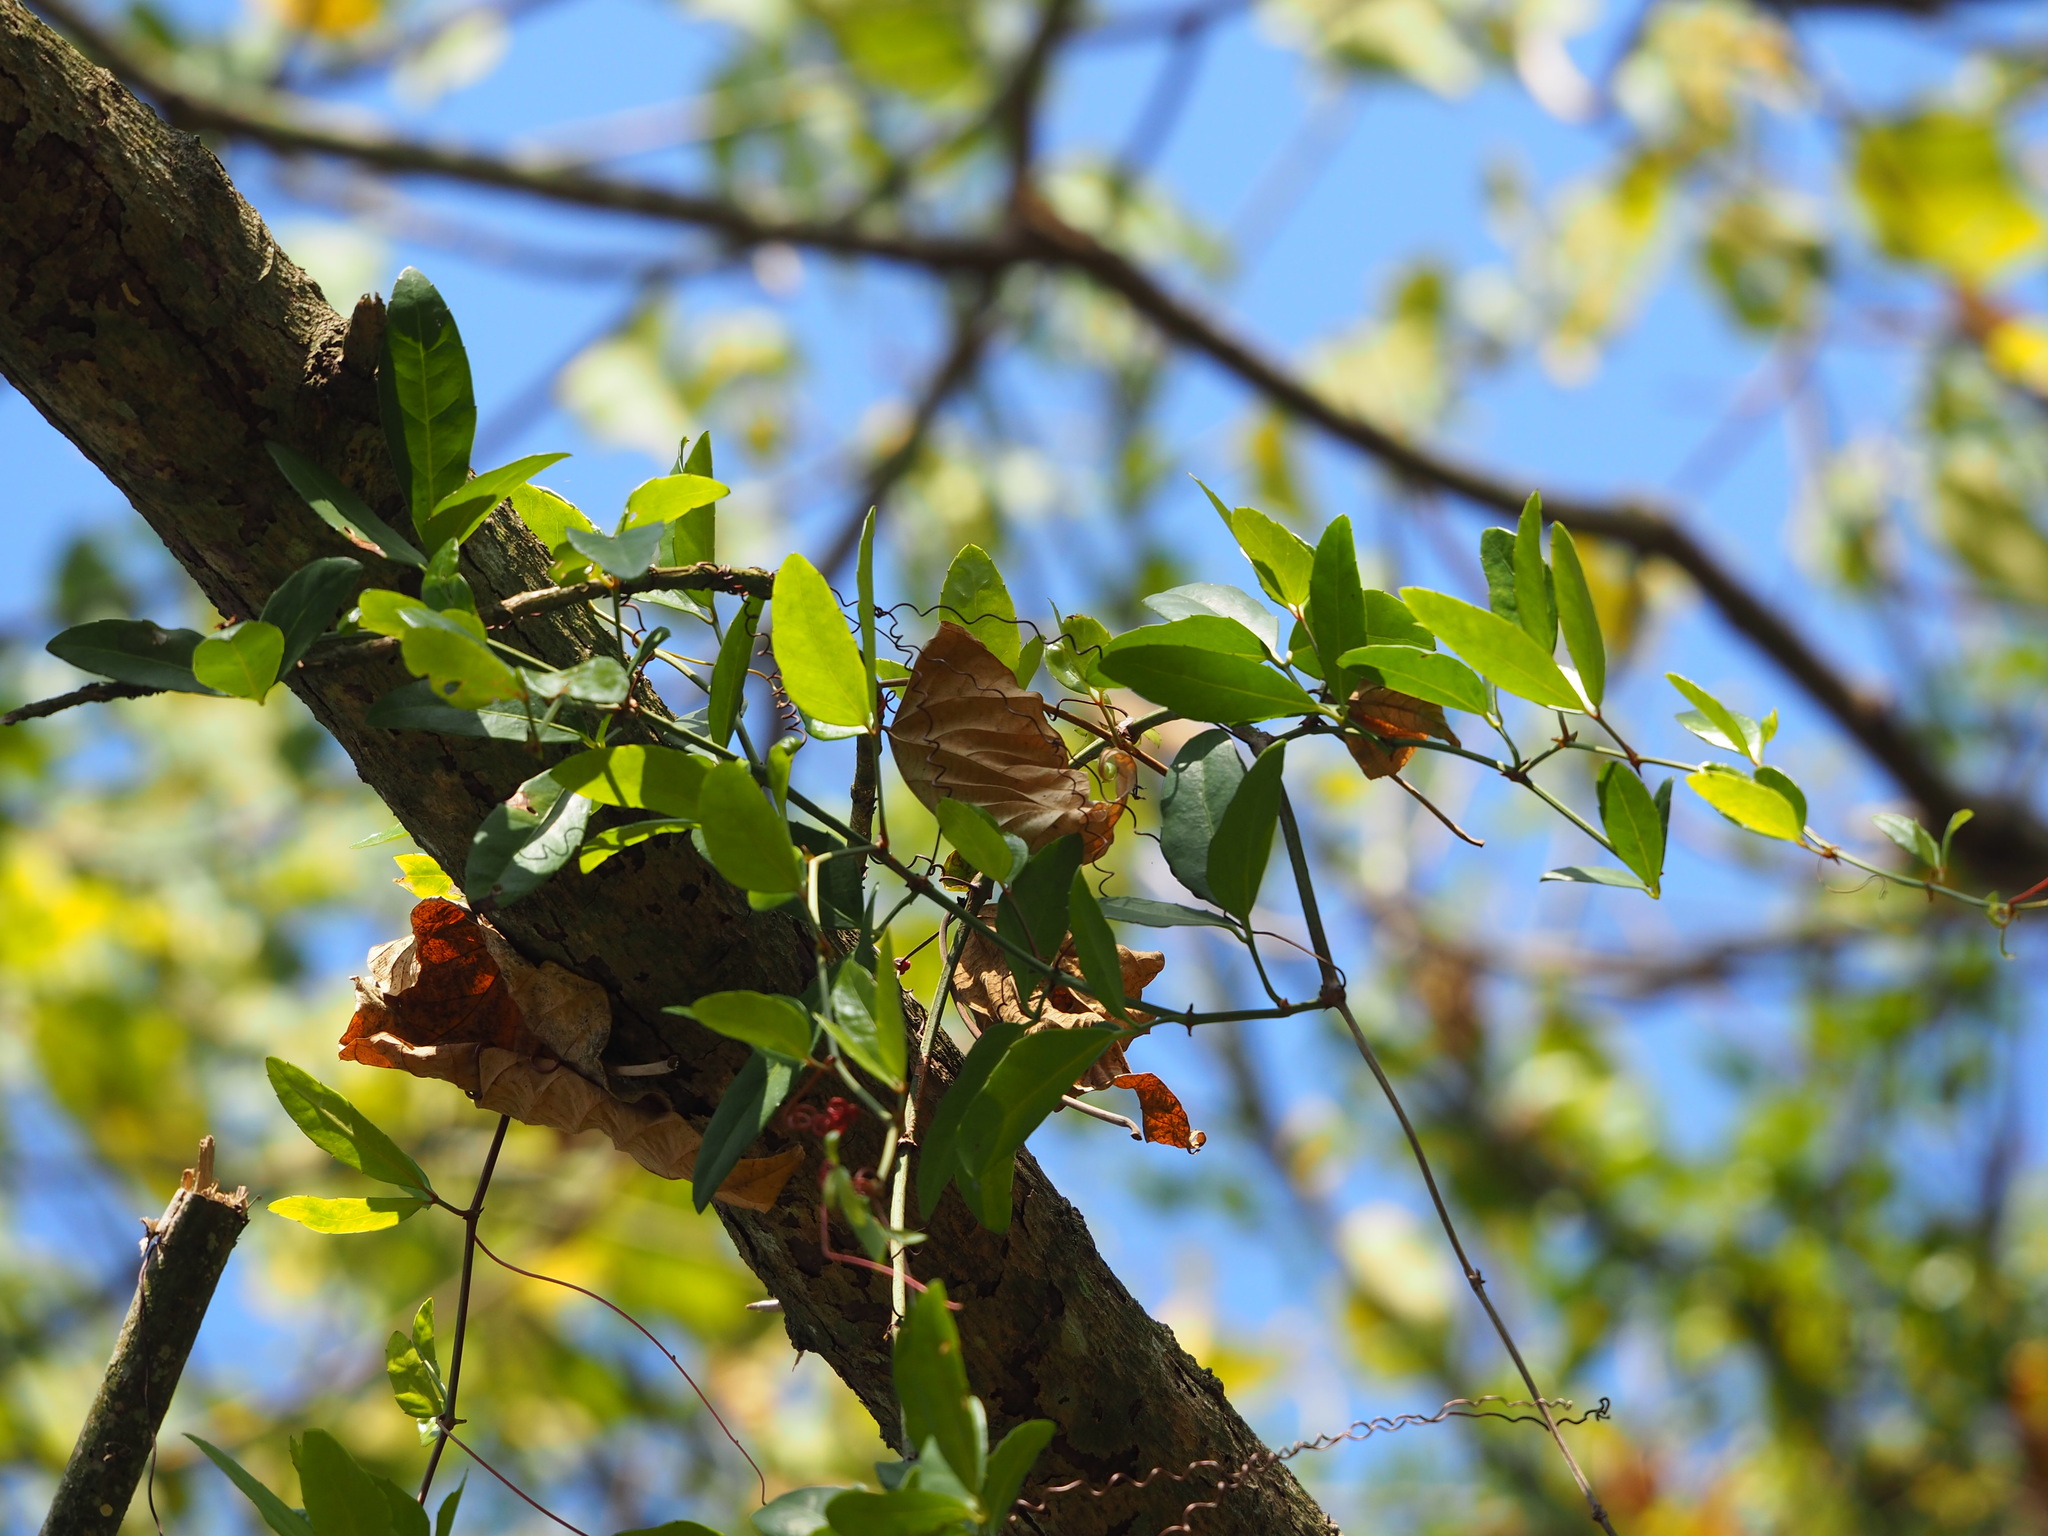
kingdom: Plantae
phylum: Tracheophyta
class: Magnoliopsida
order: Vitales
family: Vitaceae
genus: Tetrastigma
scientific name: Tetrastigma formosanum
